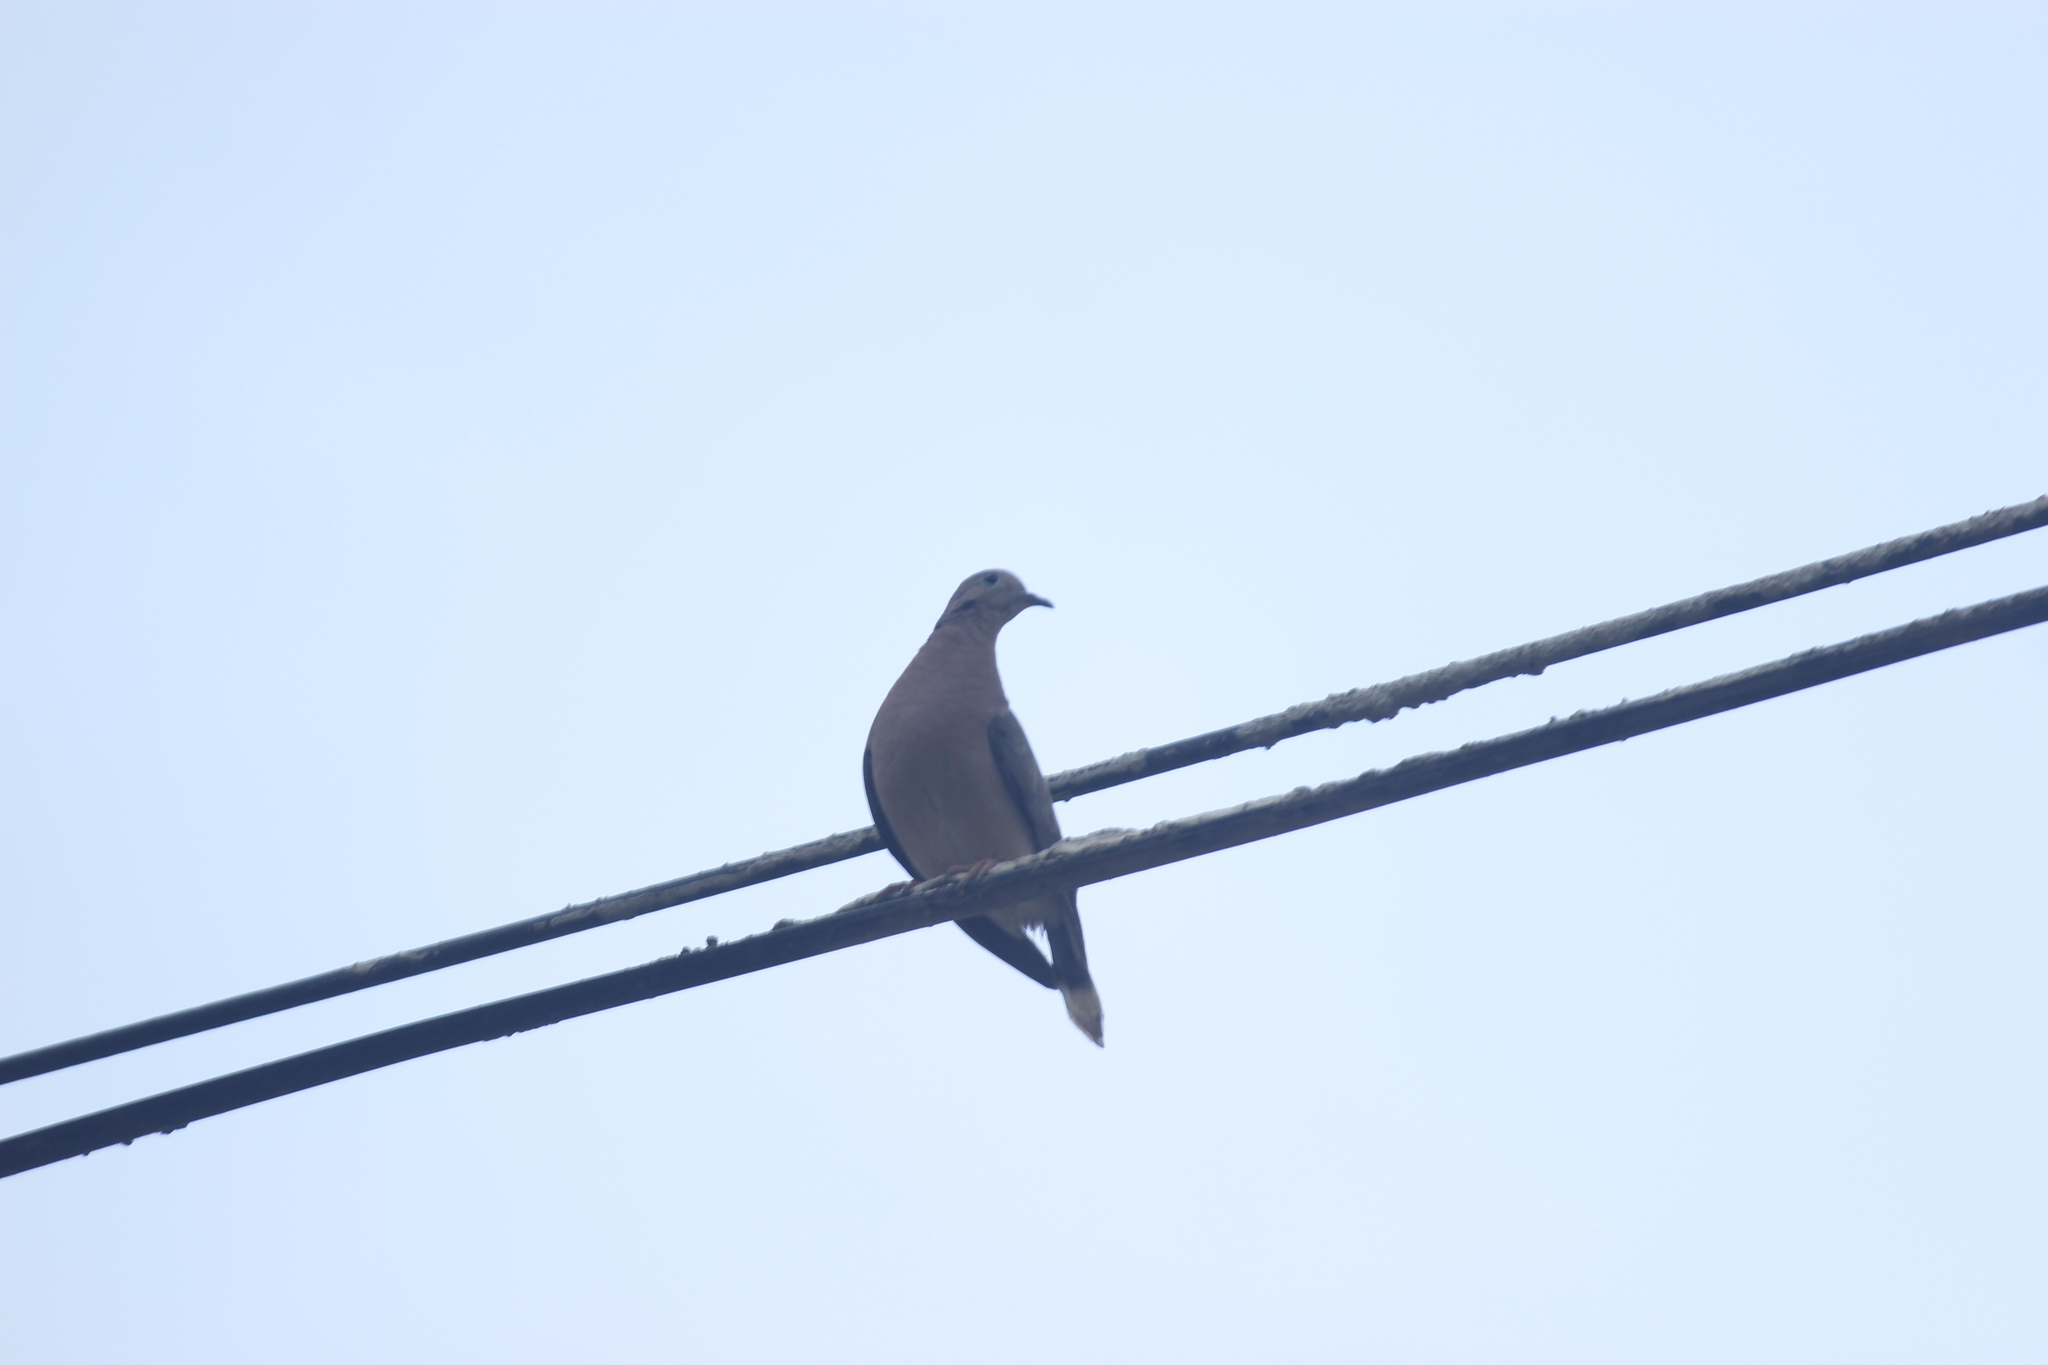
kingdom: Animalia
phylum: Chordata
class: Aves
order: Columbiformes
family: Columbidae
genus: Zenaida
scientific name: Zenaida auriculata
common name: Eared dove
